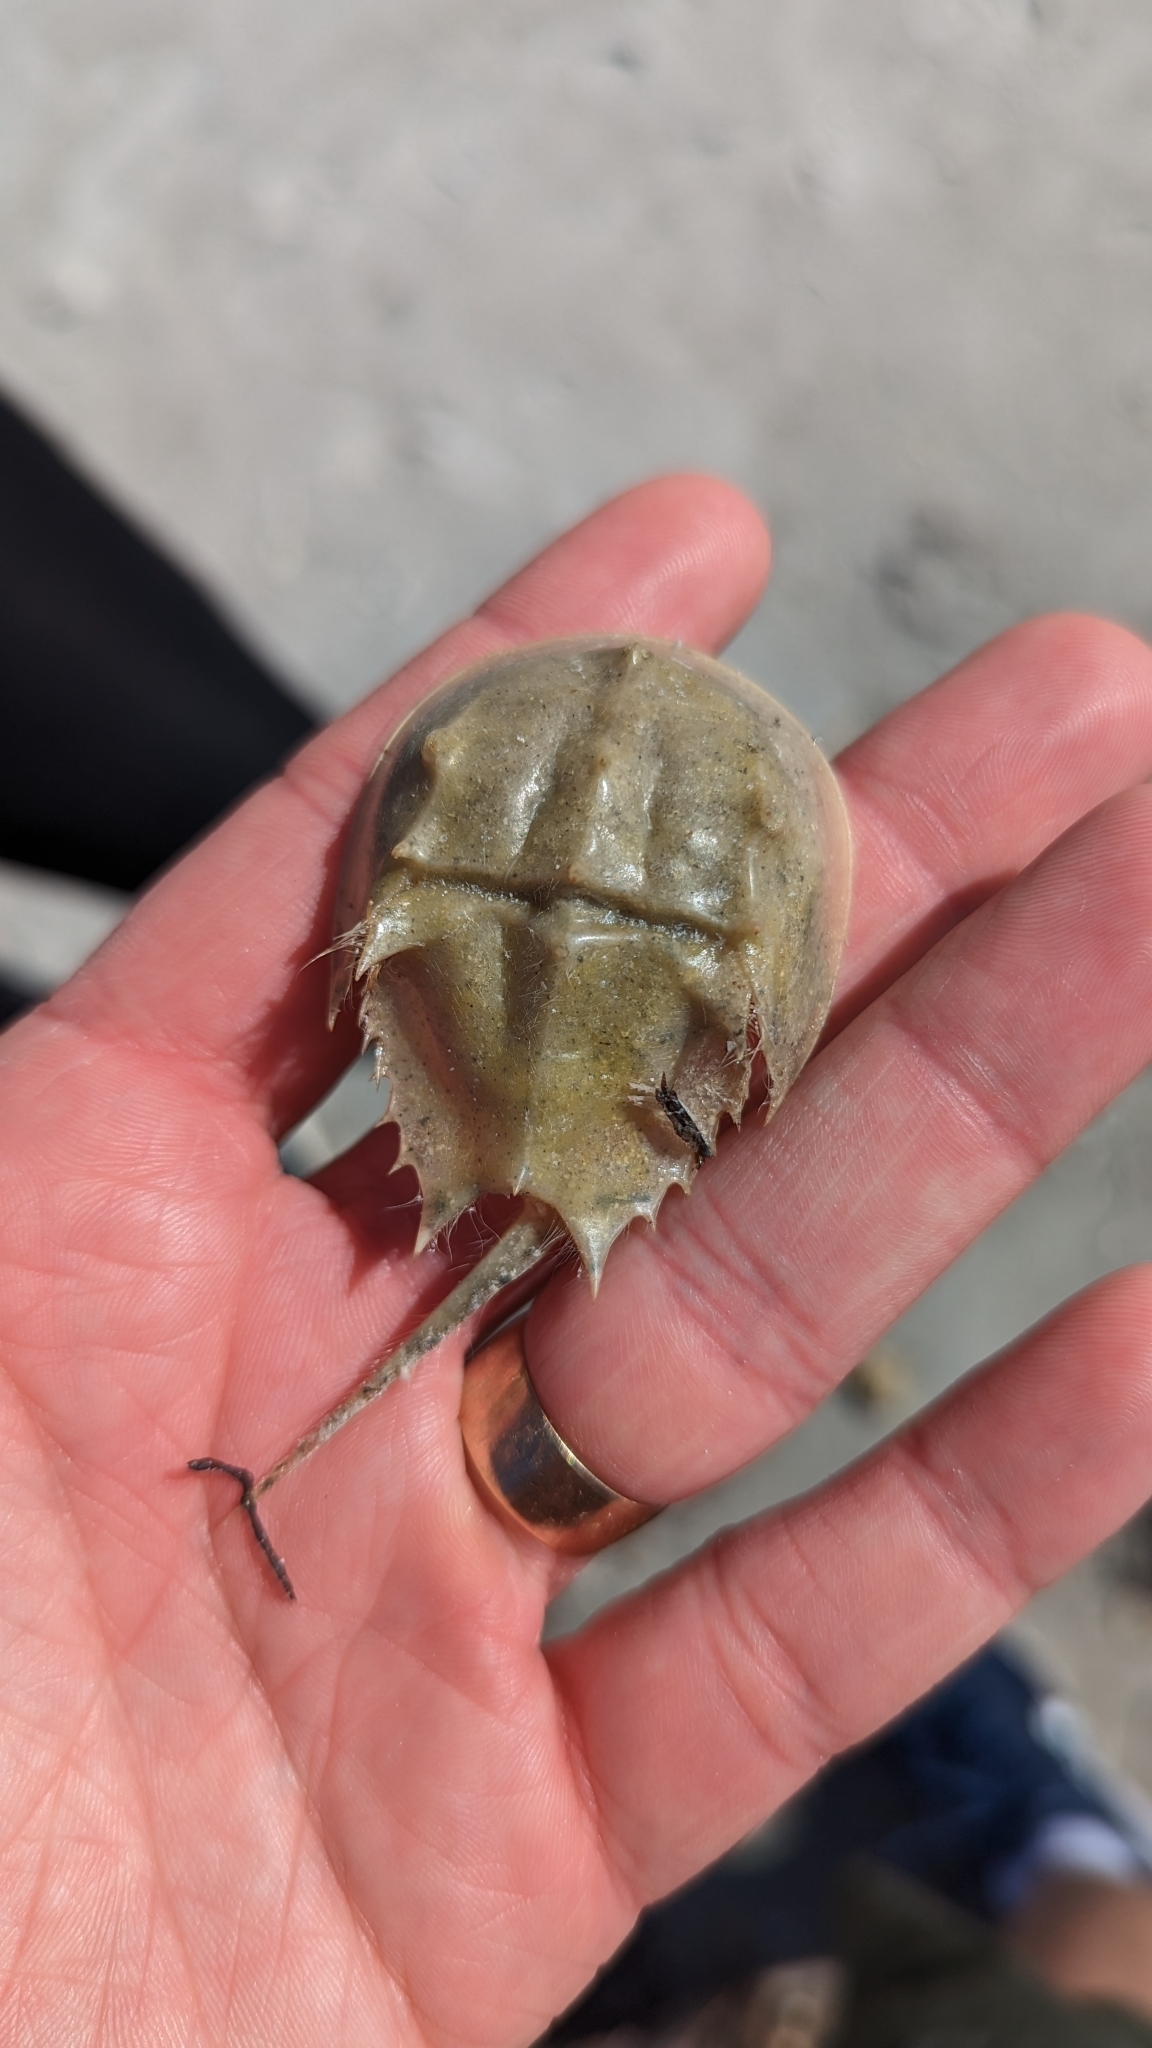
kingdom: Animalia
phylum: Arthropoda
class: Merostomata
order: Xiphosurida
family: Limulidae
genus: Limulus
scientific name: Limulus polyphemus
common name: Horseshoe crab
